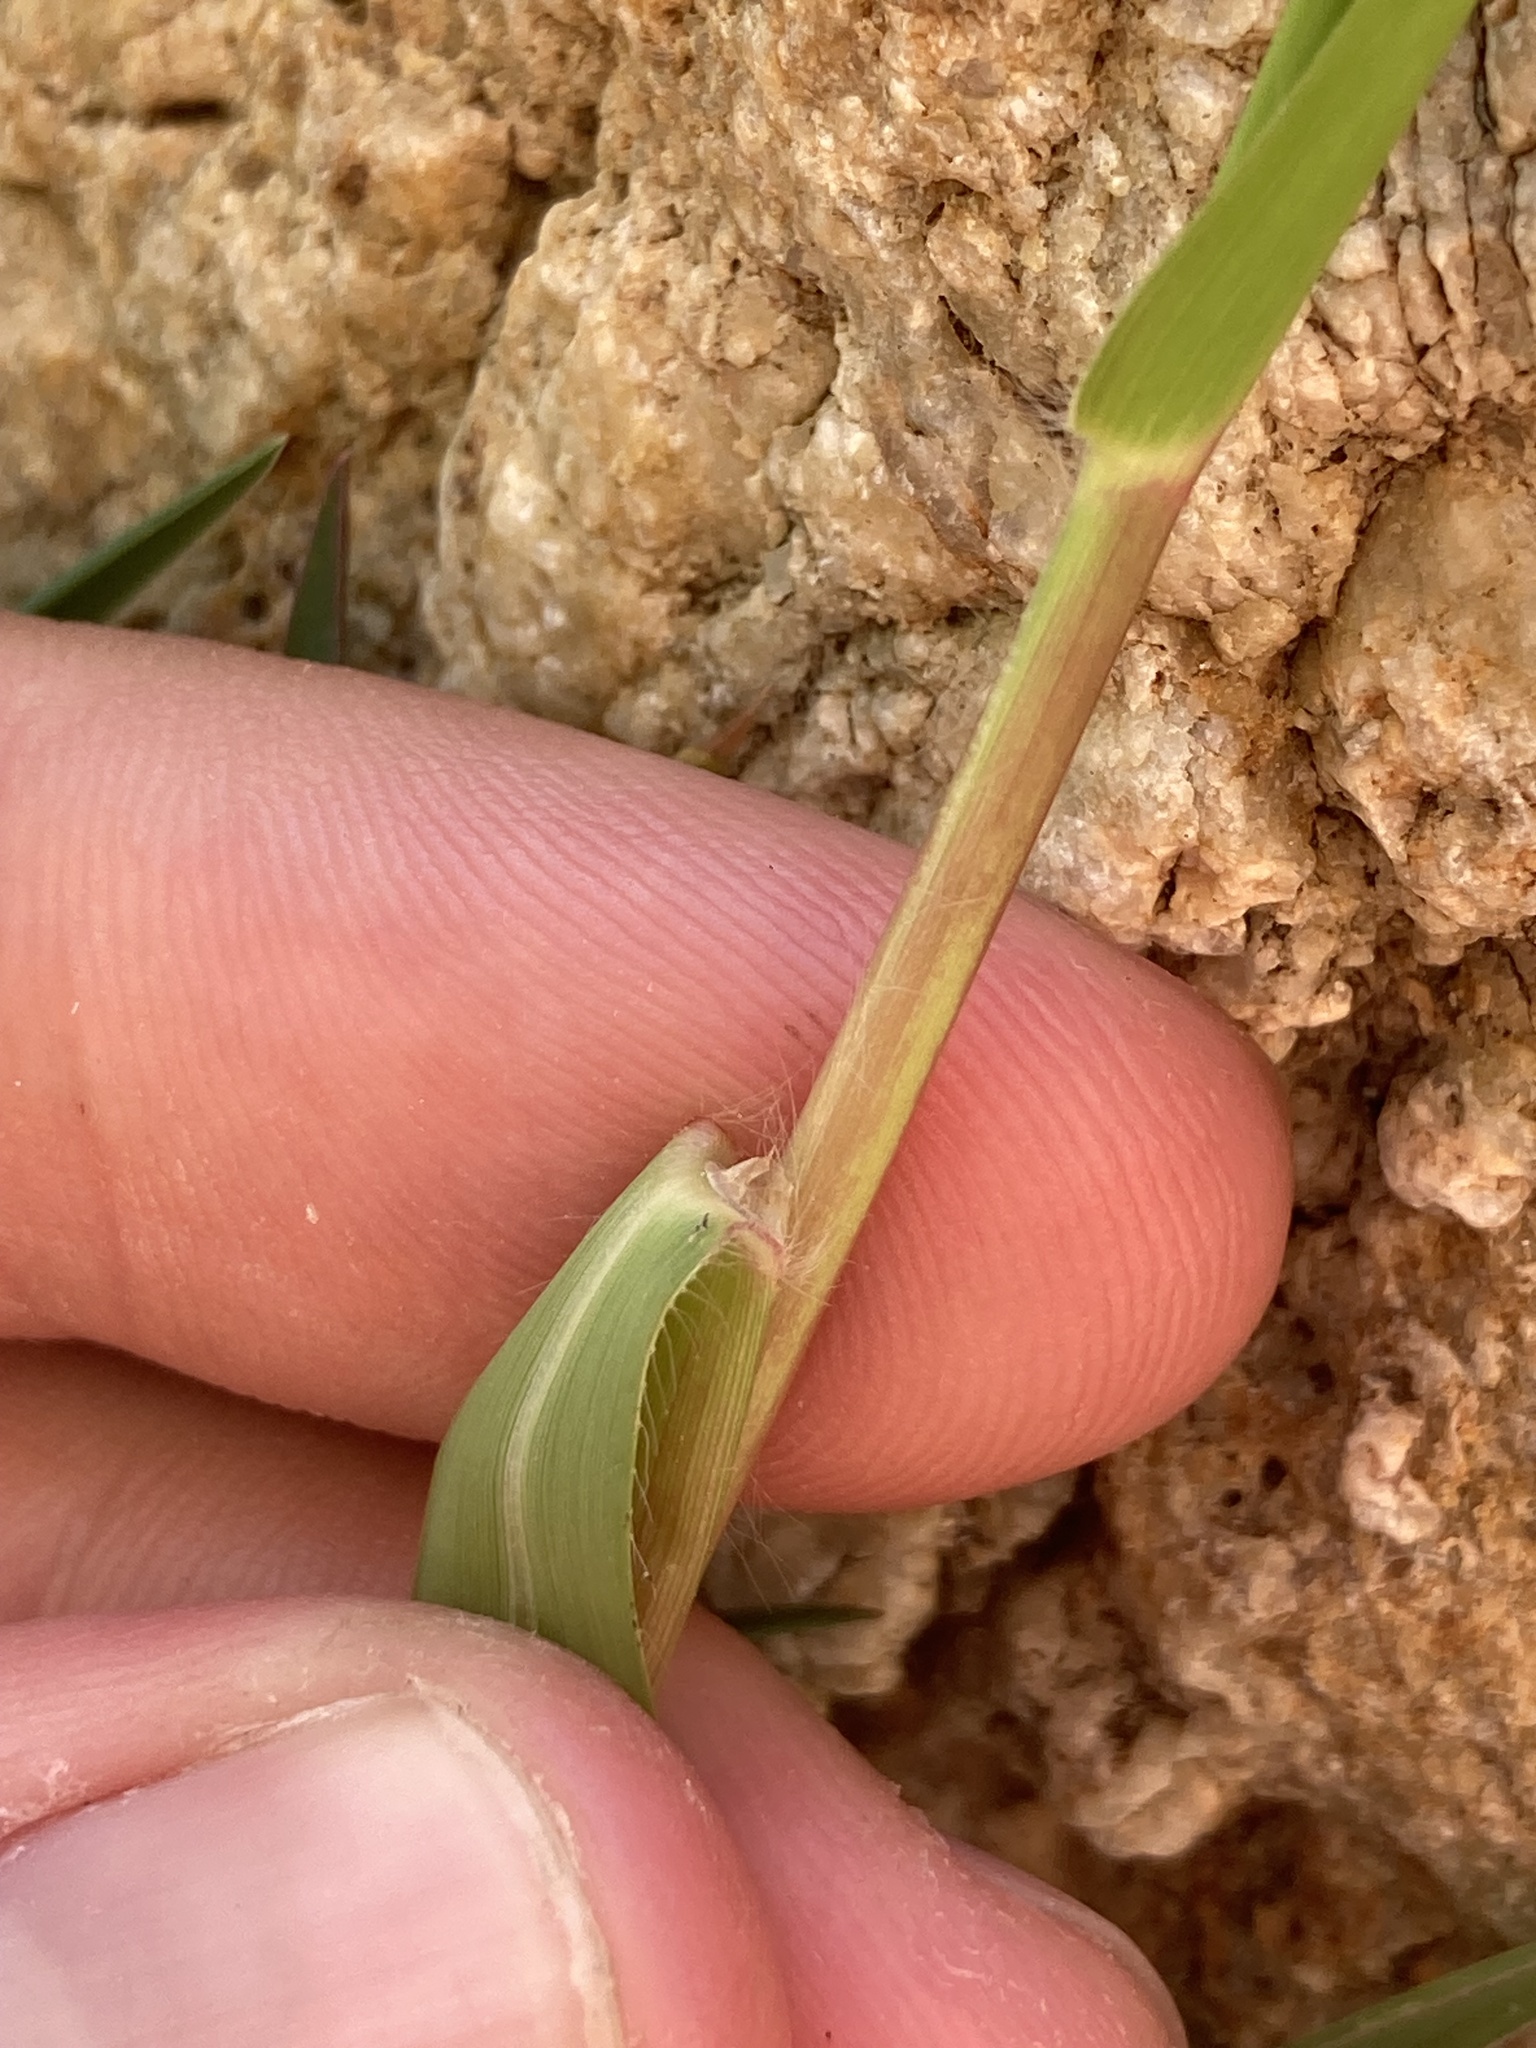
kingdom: Plantae
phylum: Tracheophyta
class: Liliopsida
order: Poales
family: Poaceae
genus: Paspalum
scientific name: Paspalum vaginatum
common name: Seashore paspalum
